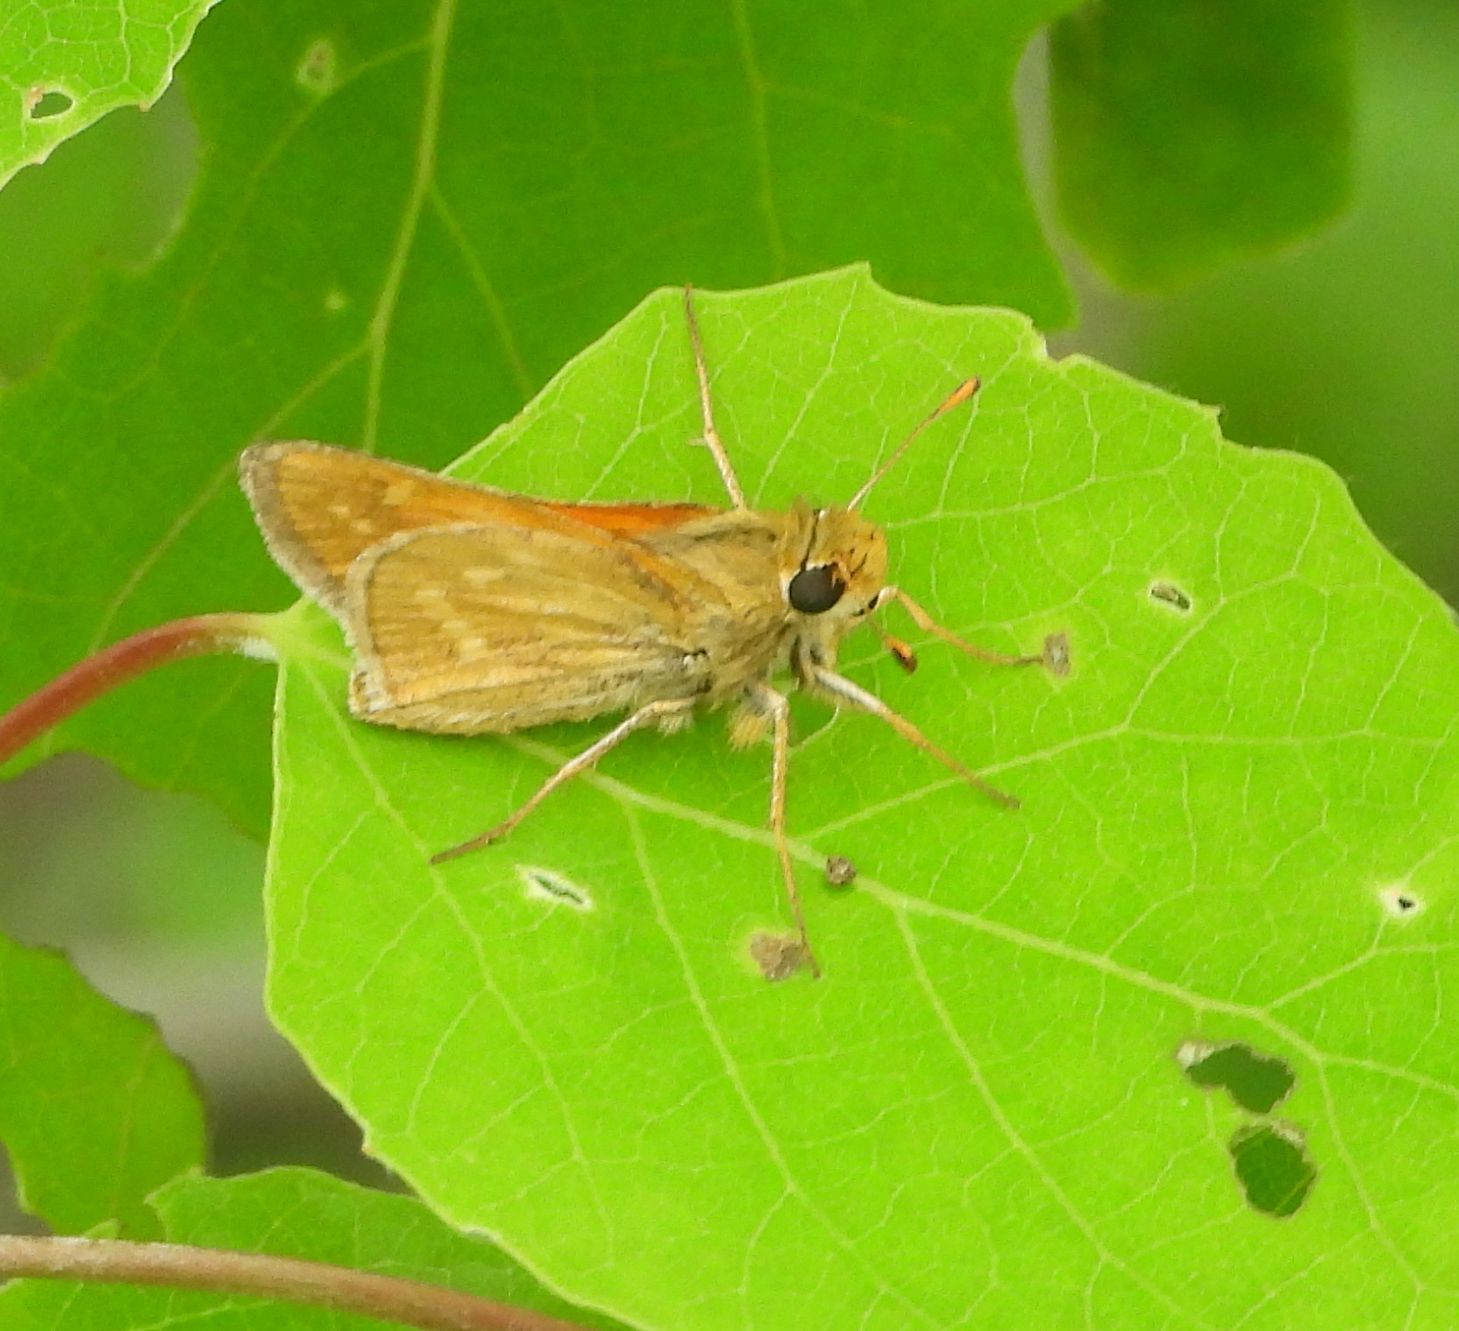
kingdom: Animalia
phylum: Arthropoda
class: Insecta
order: Lepidoptera
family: Hesperiidae
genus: Hesperia
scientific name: Hesperia sassacus
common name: Indian skipper
